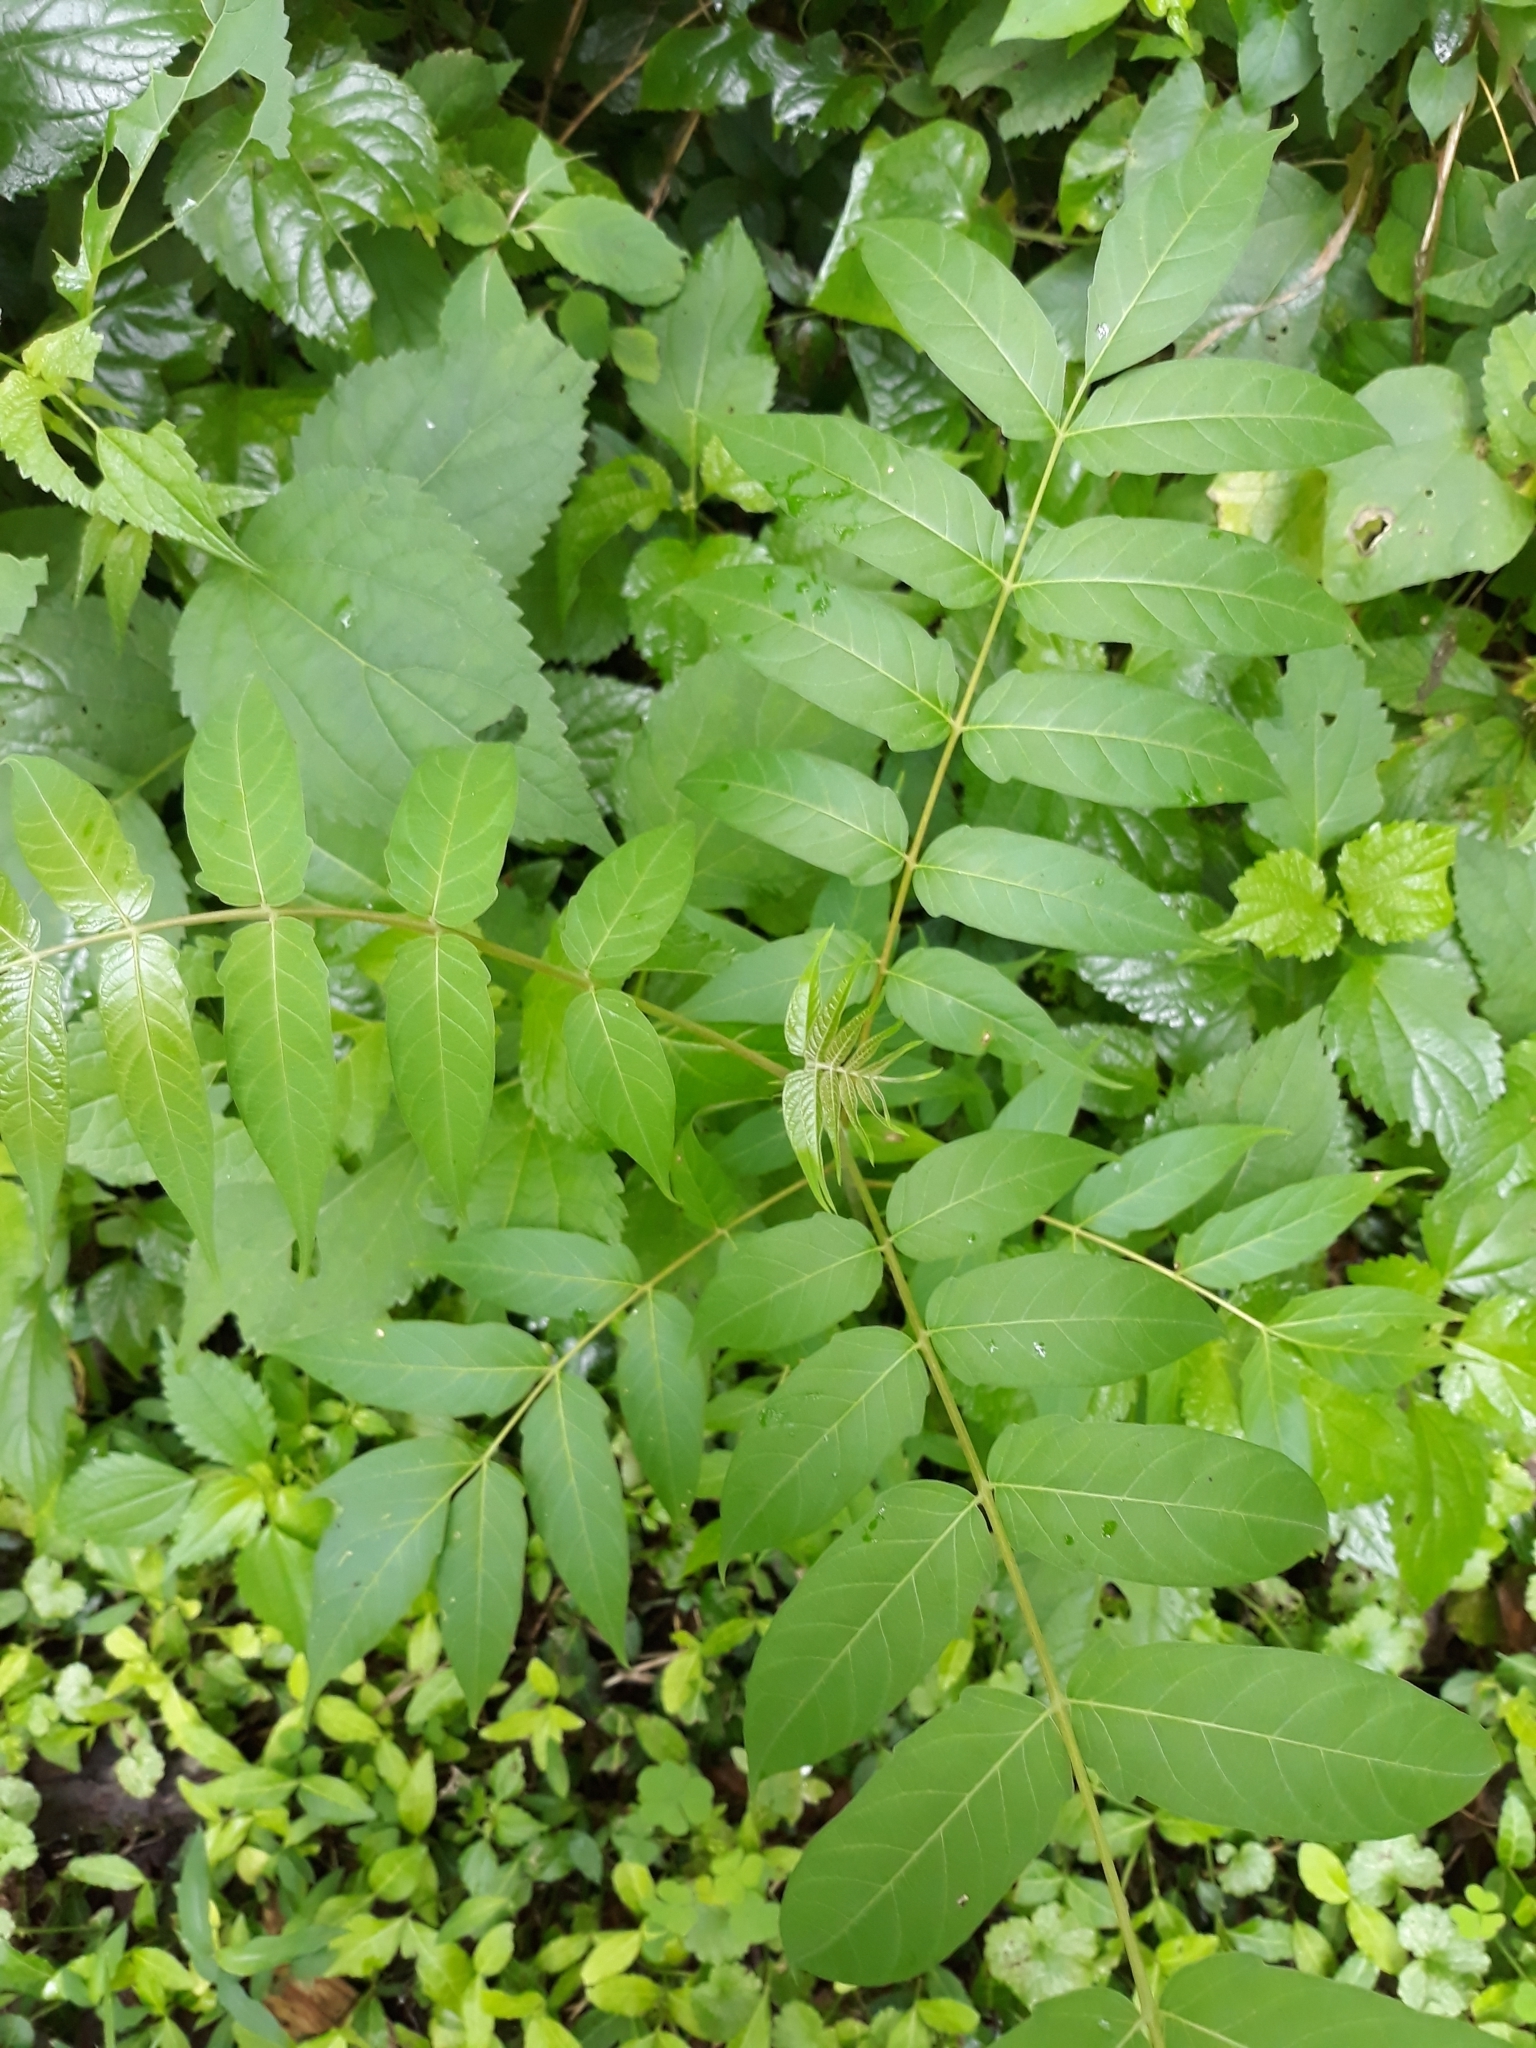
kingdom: Plantae
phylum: Tracheophyta
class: Magnoliopsida
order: Sapindales
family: Simaroubaceae
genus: Ailanthus
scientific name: Ailanthus altissima
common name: Tree-of-heaven
